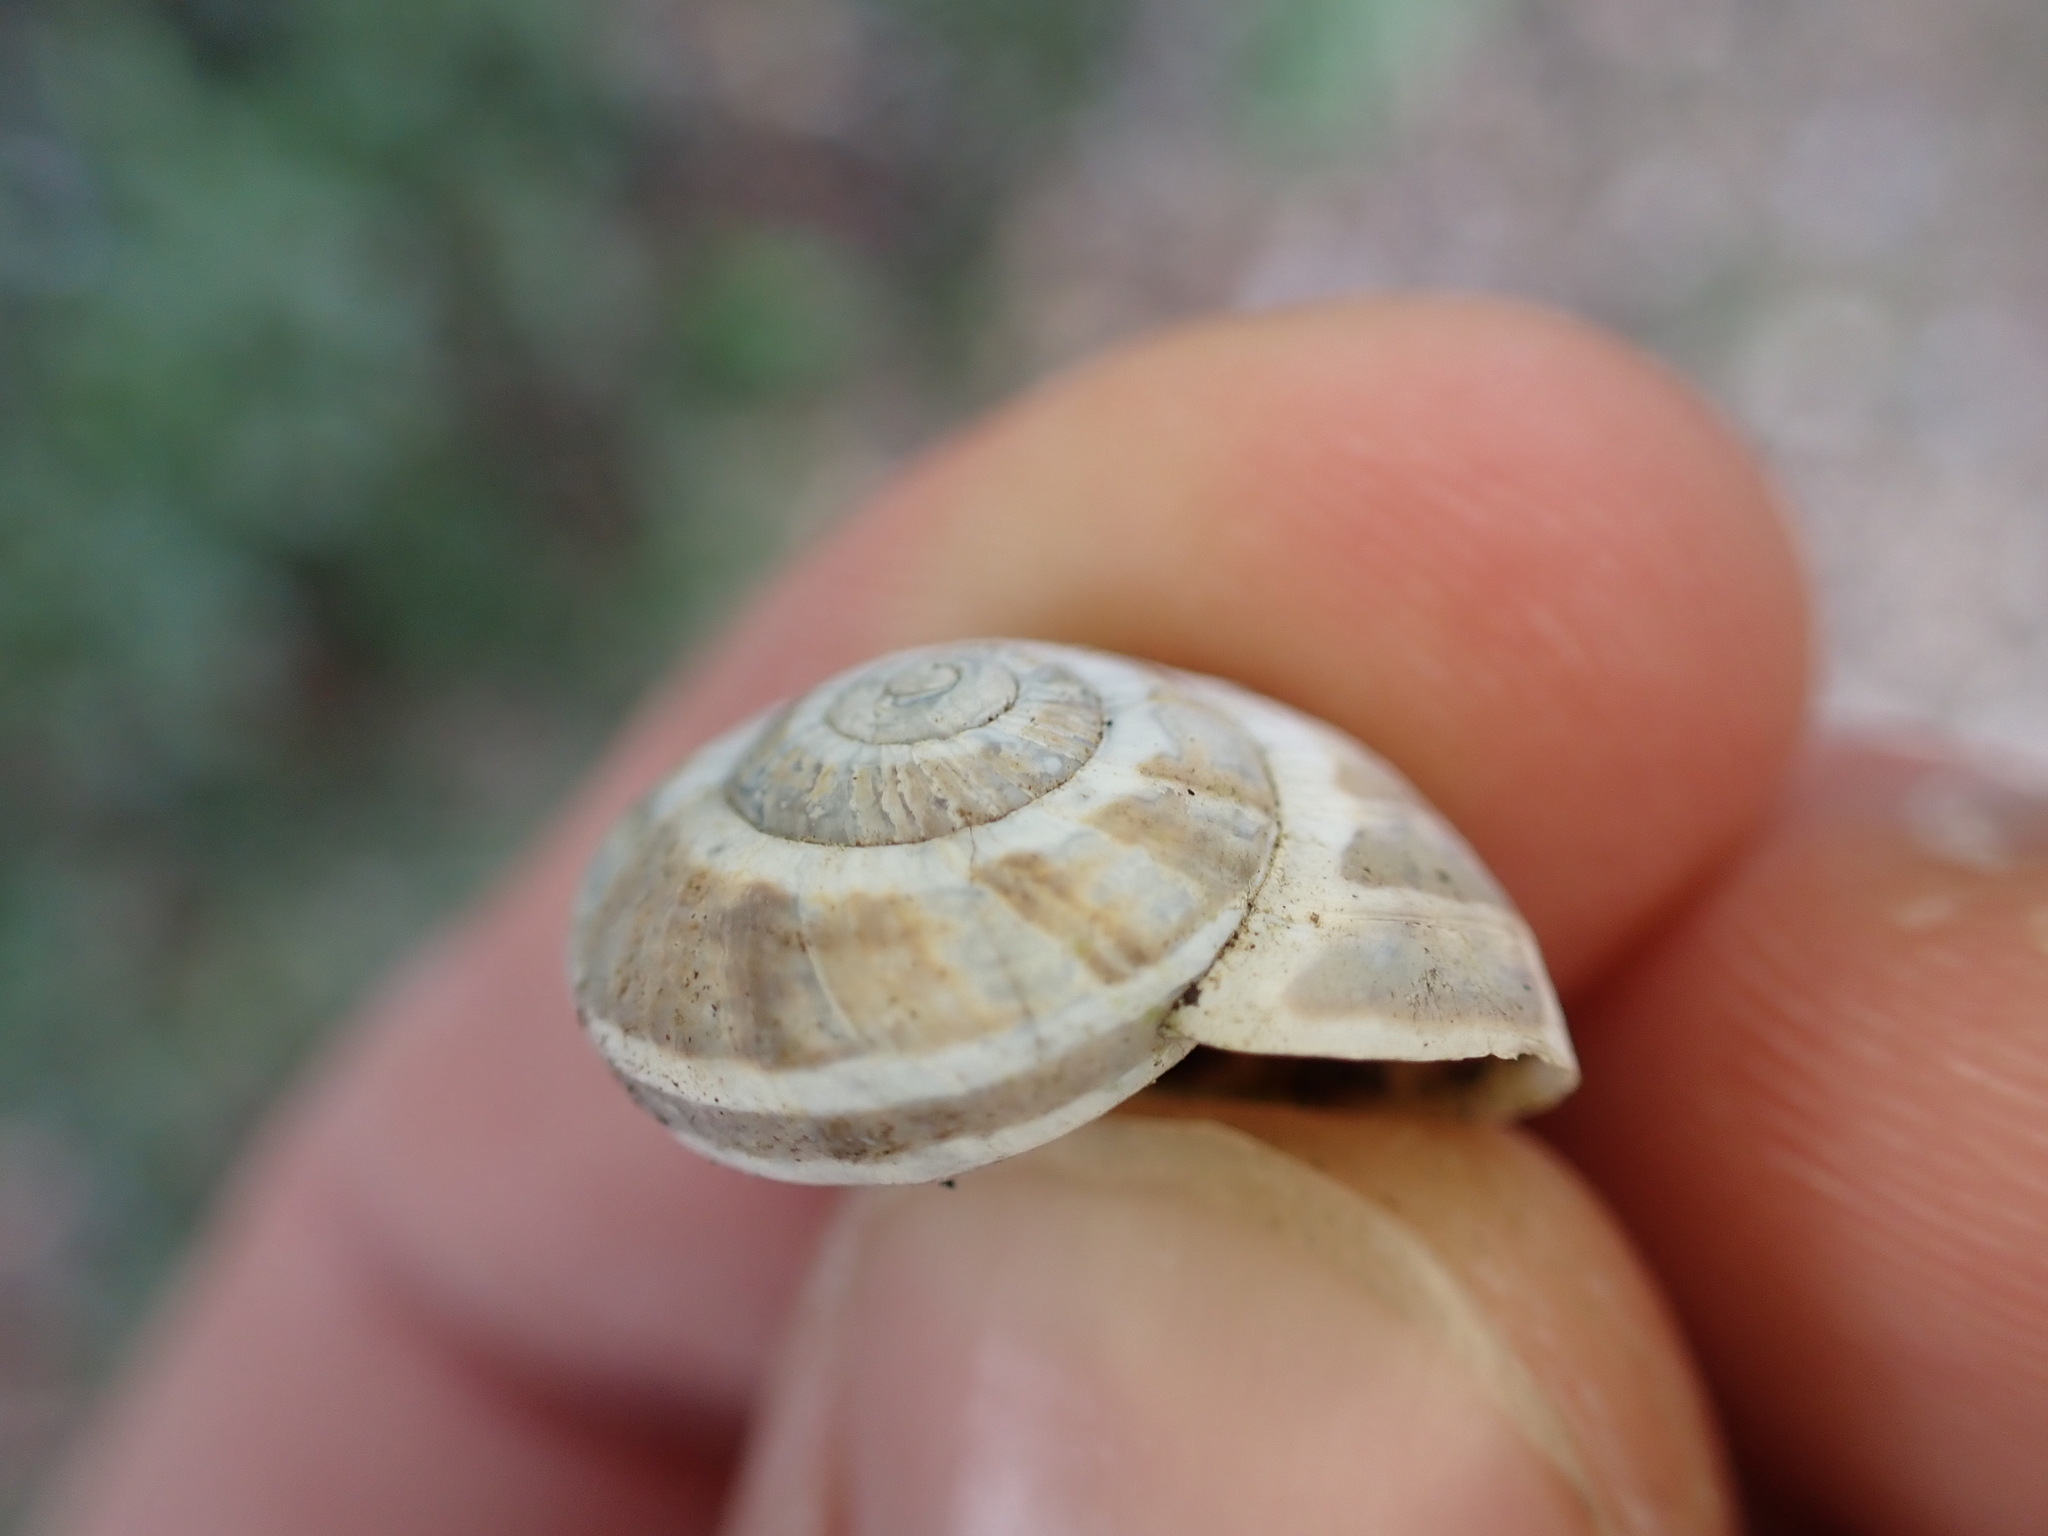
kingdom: Animalia
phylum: Mollusca
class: Gastropoda
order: Stylommatophora
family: Helicidae
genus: Pseudotachea
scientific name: Pseudotachea splendida
